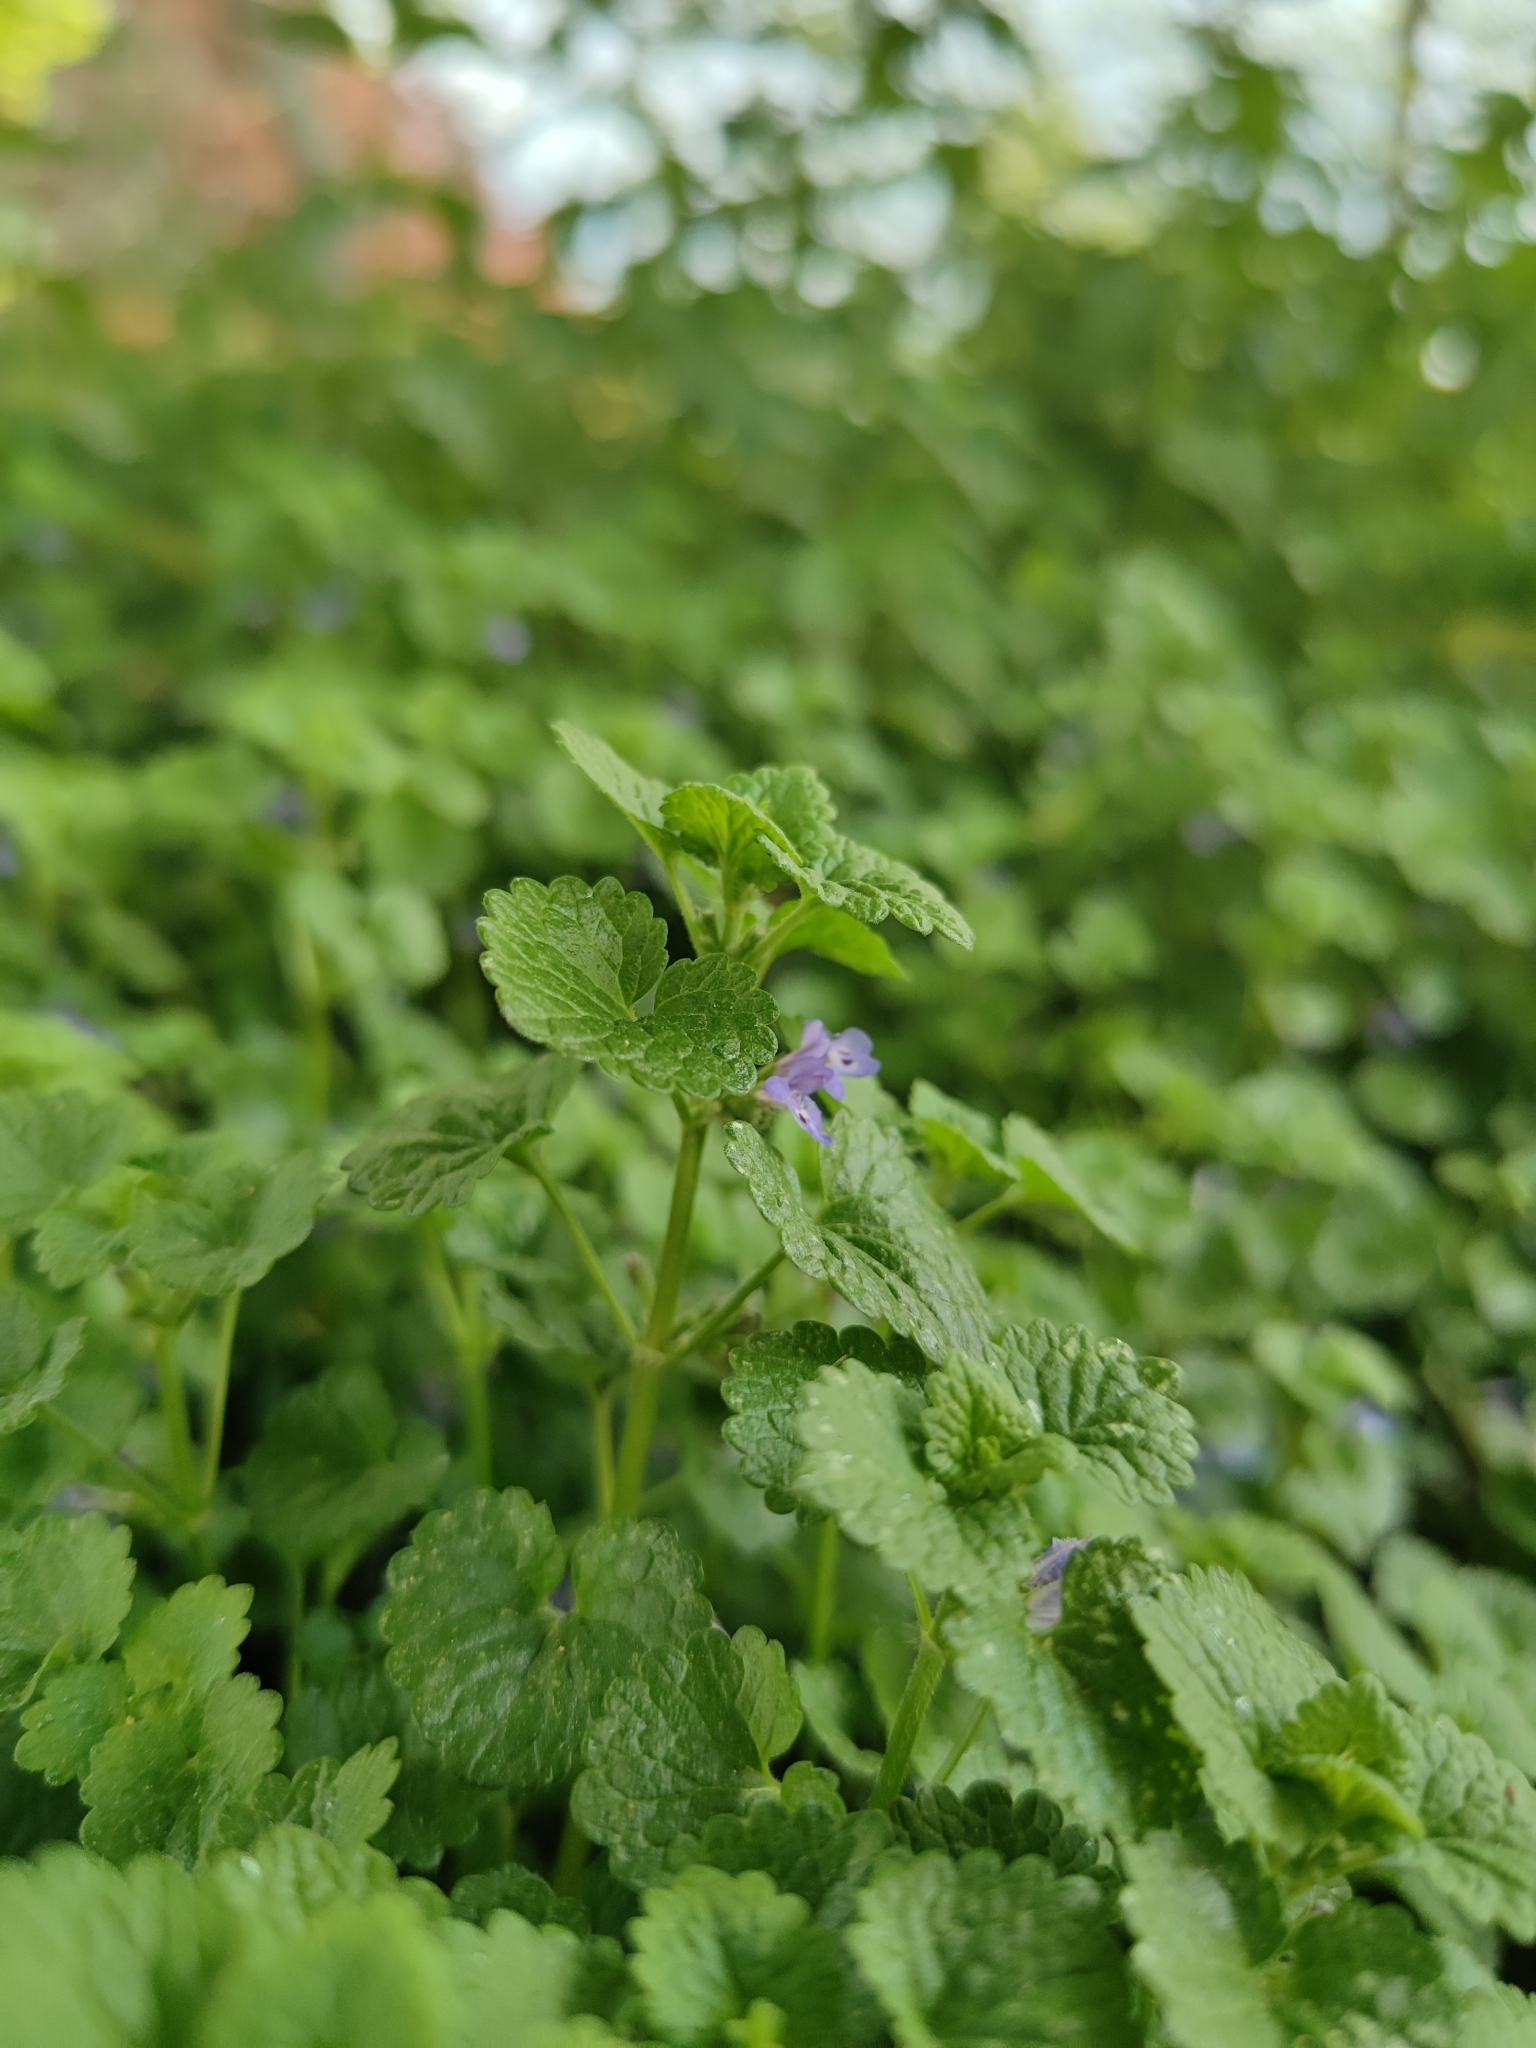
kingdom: Plantae
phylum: Tracheophyta
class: Magnoliopsida
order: Lamiales
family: Lamiaceae
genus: Glechoma
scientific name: Glechoma hederacea
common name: Ground ivy
